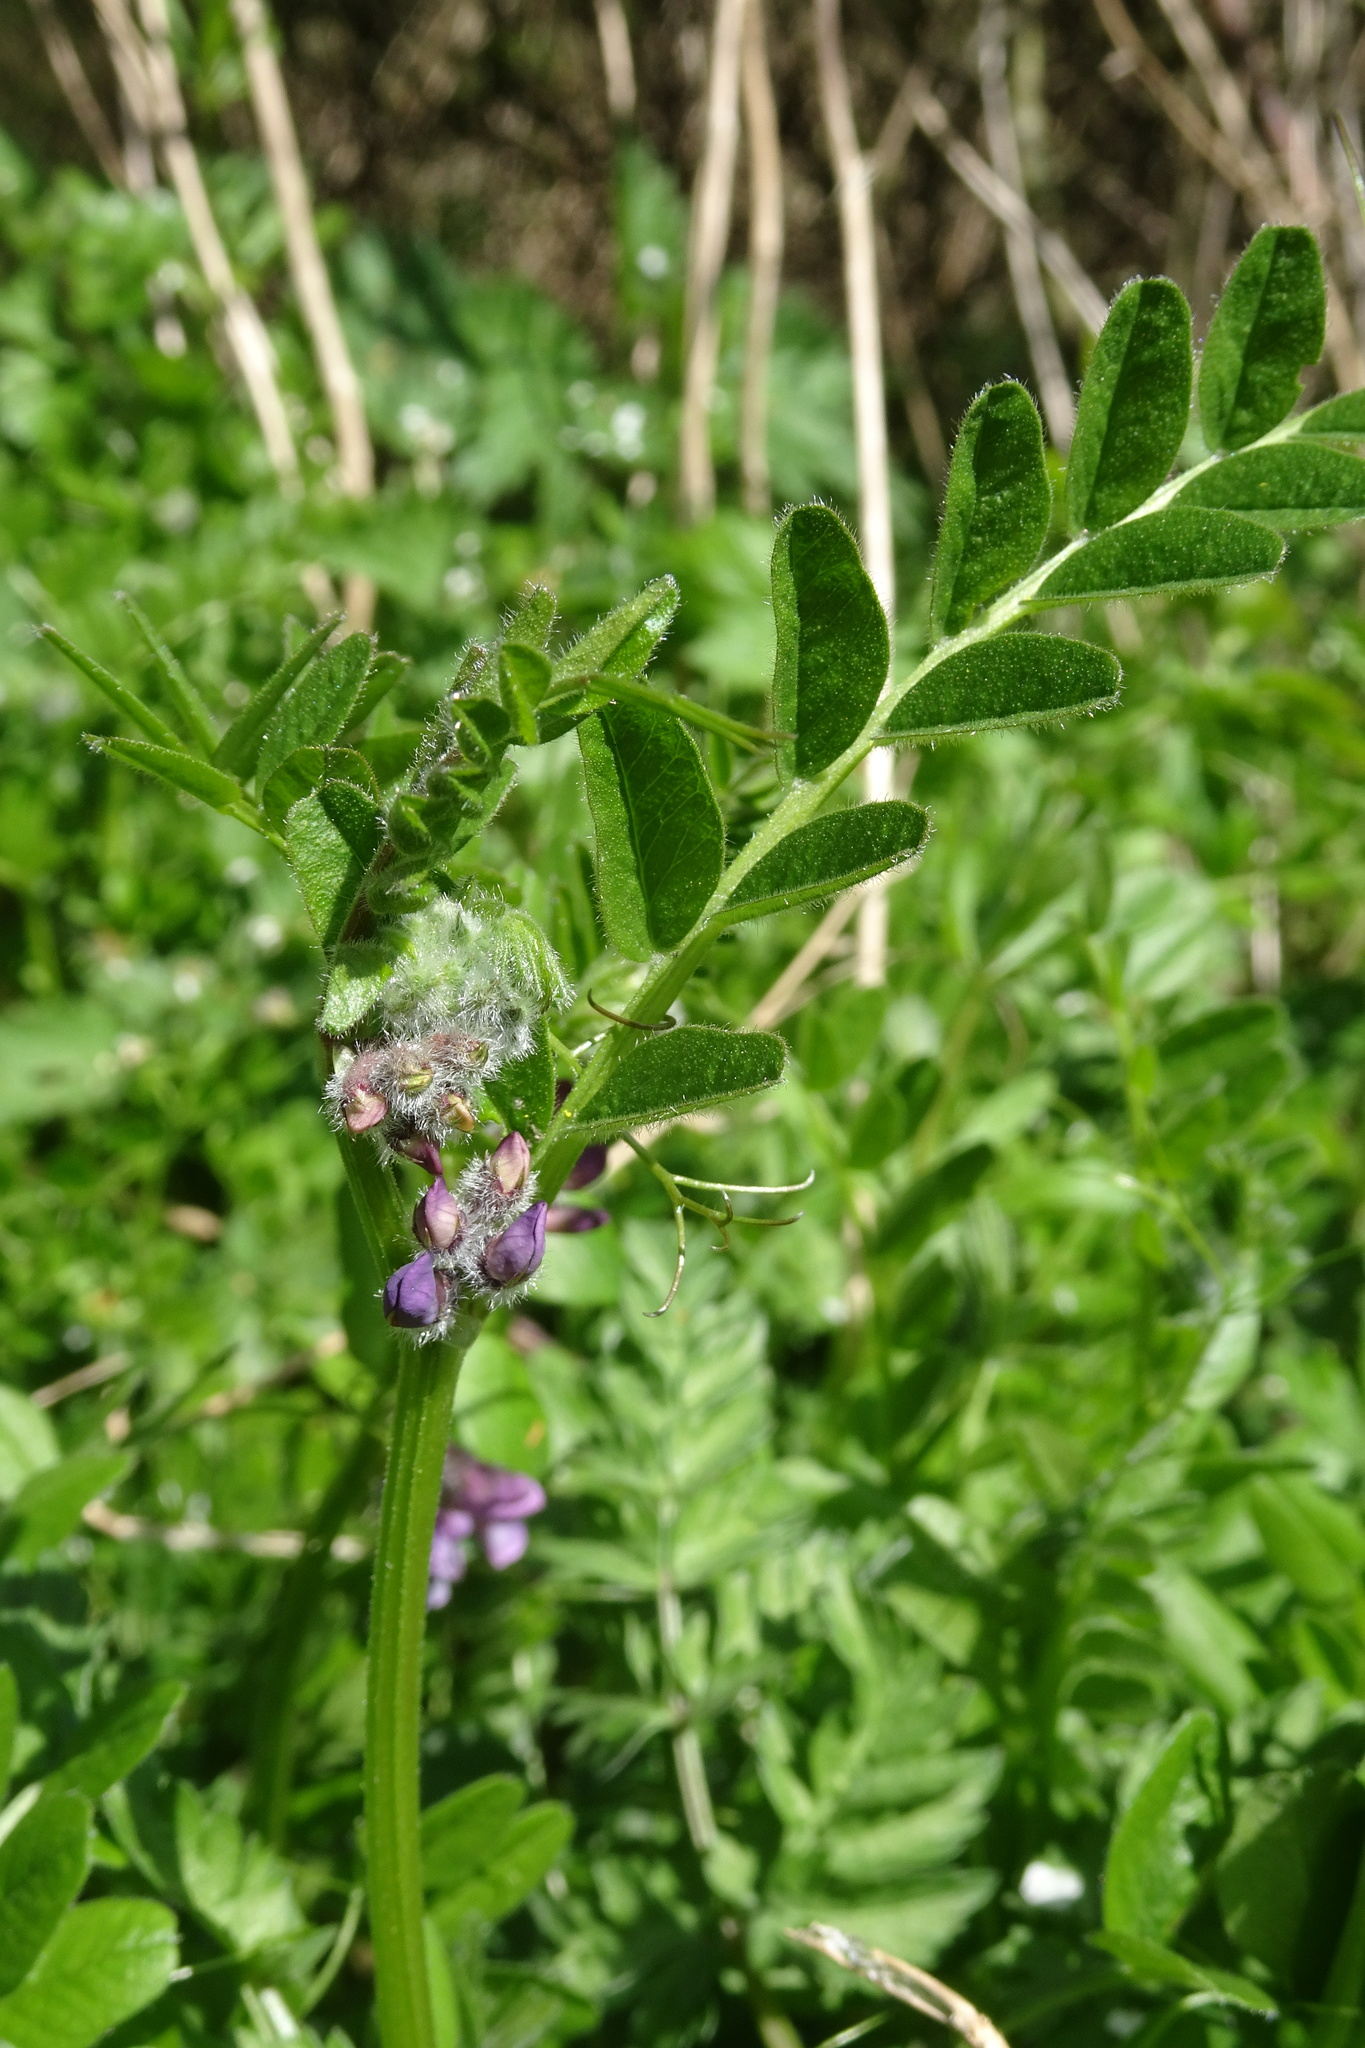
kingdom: Plantae
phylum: Tracheophyta
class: Magnoliopsida
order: Fabales
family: Fabaceae
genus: Vicia
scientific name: Vicia sepium
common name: Bush vetch
